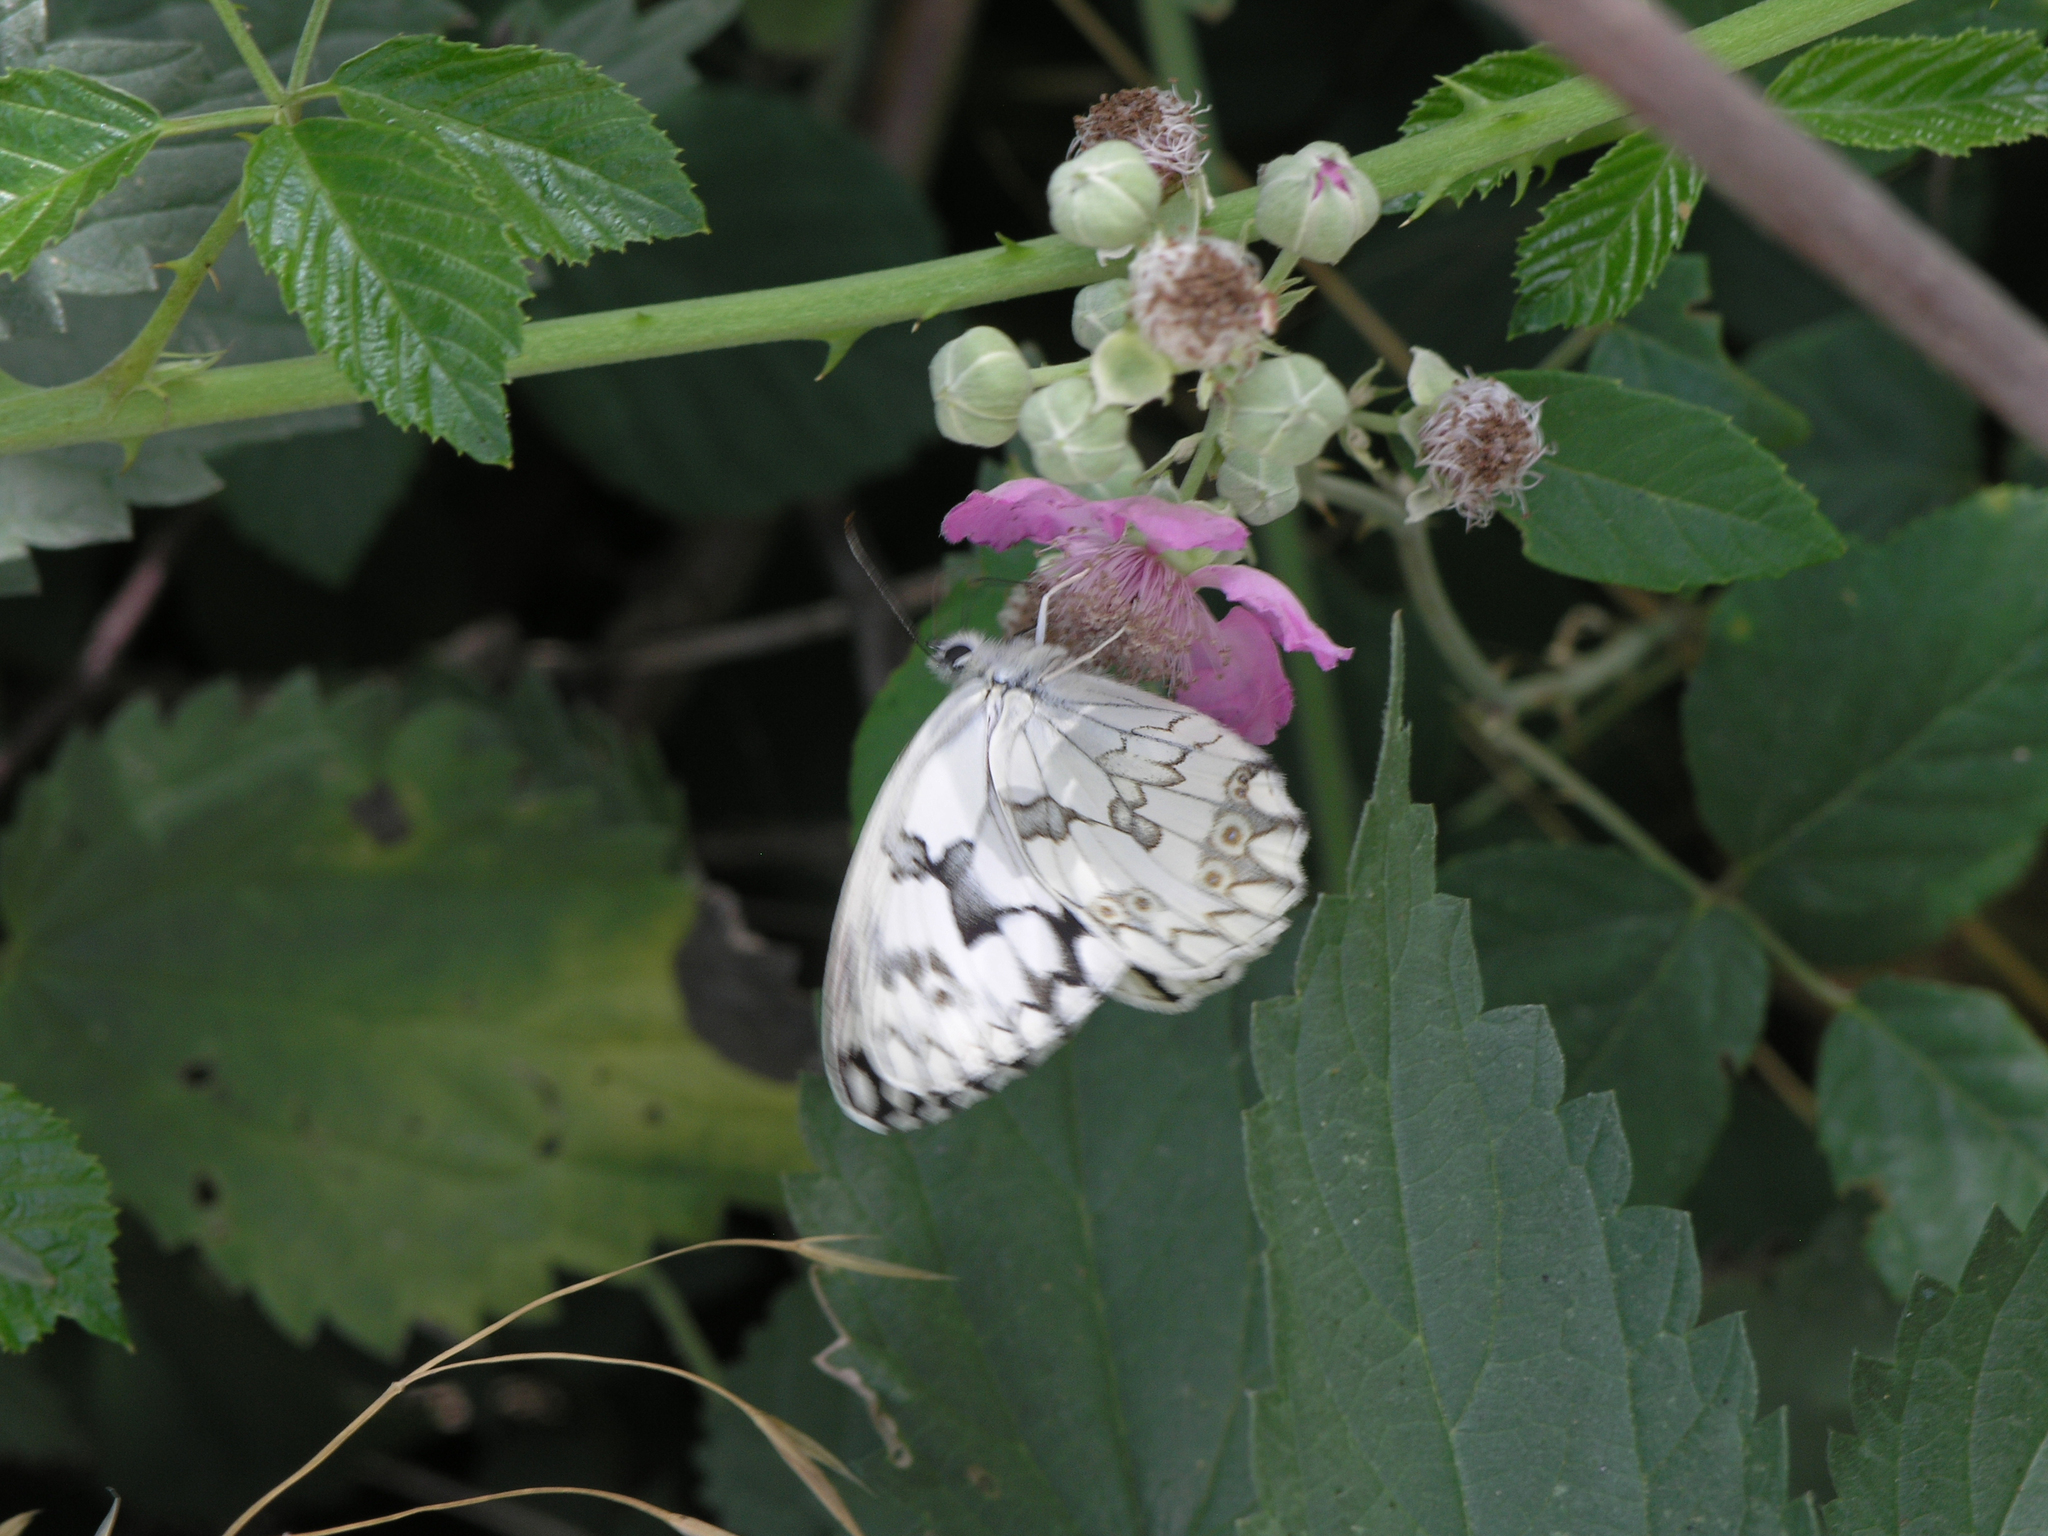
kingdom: Animalia
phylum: Arthropoda
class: Insecta
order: Lepidoptera
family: Nymphalidae
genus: Melanargia
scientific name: Melanargia lachesis
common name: Iberian marbled white
